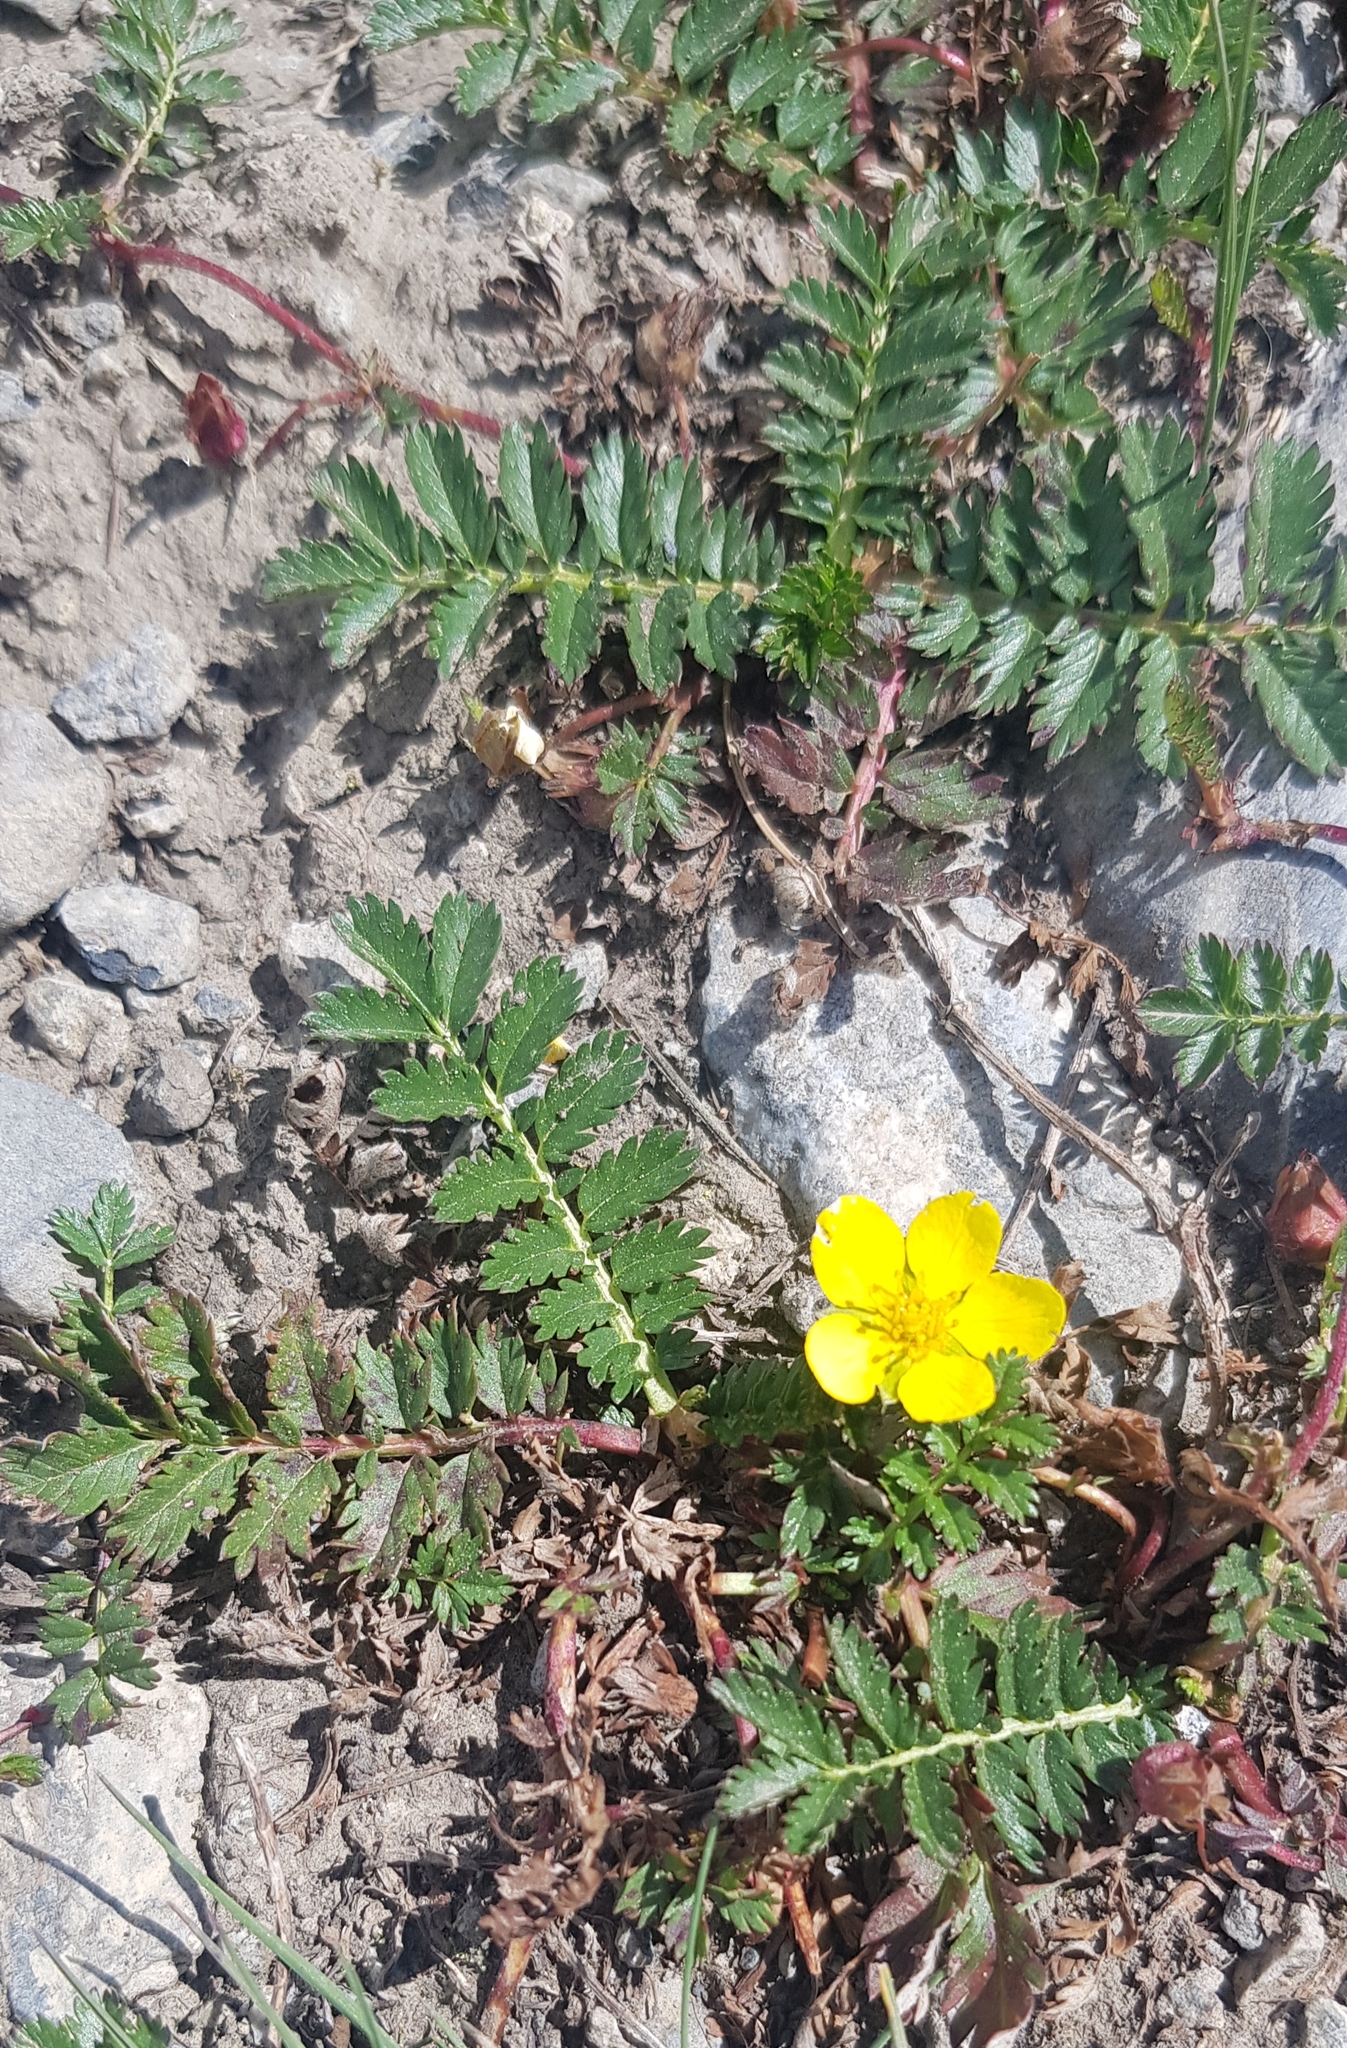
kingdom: Plantae
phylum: Tracheophyta
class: Magnoliopsida
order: Rosales
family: Rosaceae
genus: Argentina
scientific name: Argentina anserina
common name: Common silverweed
